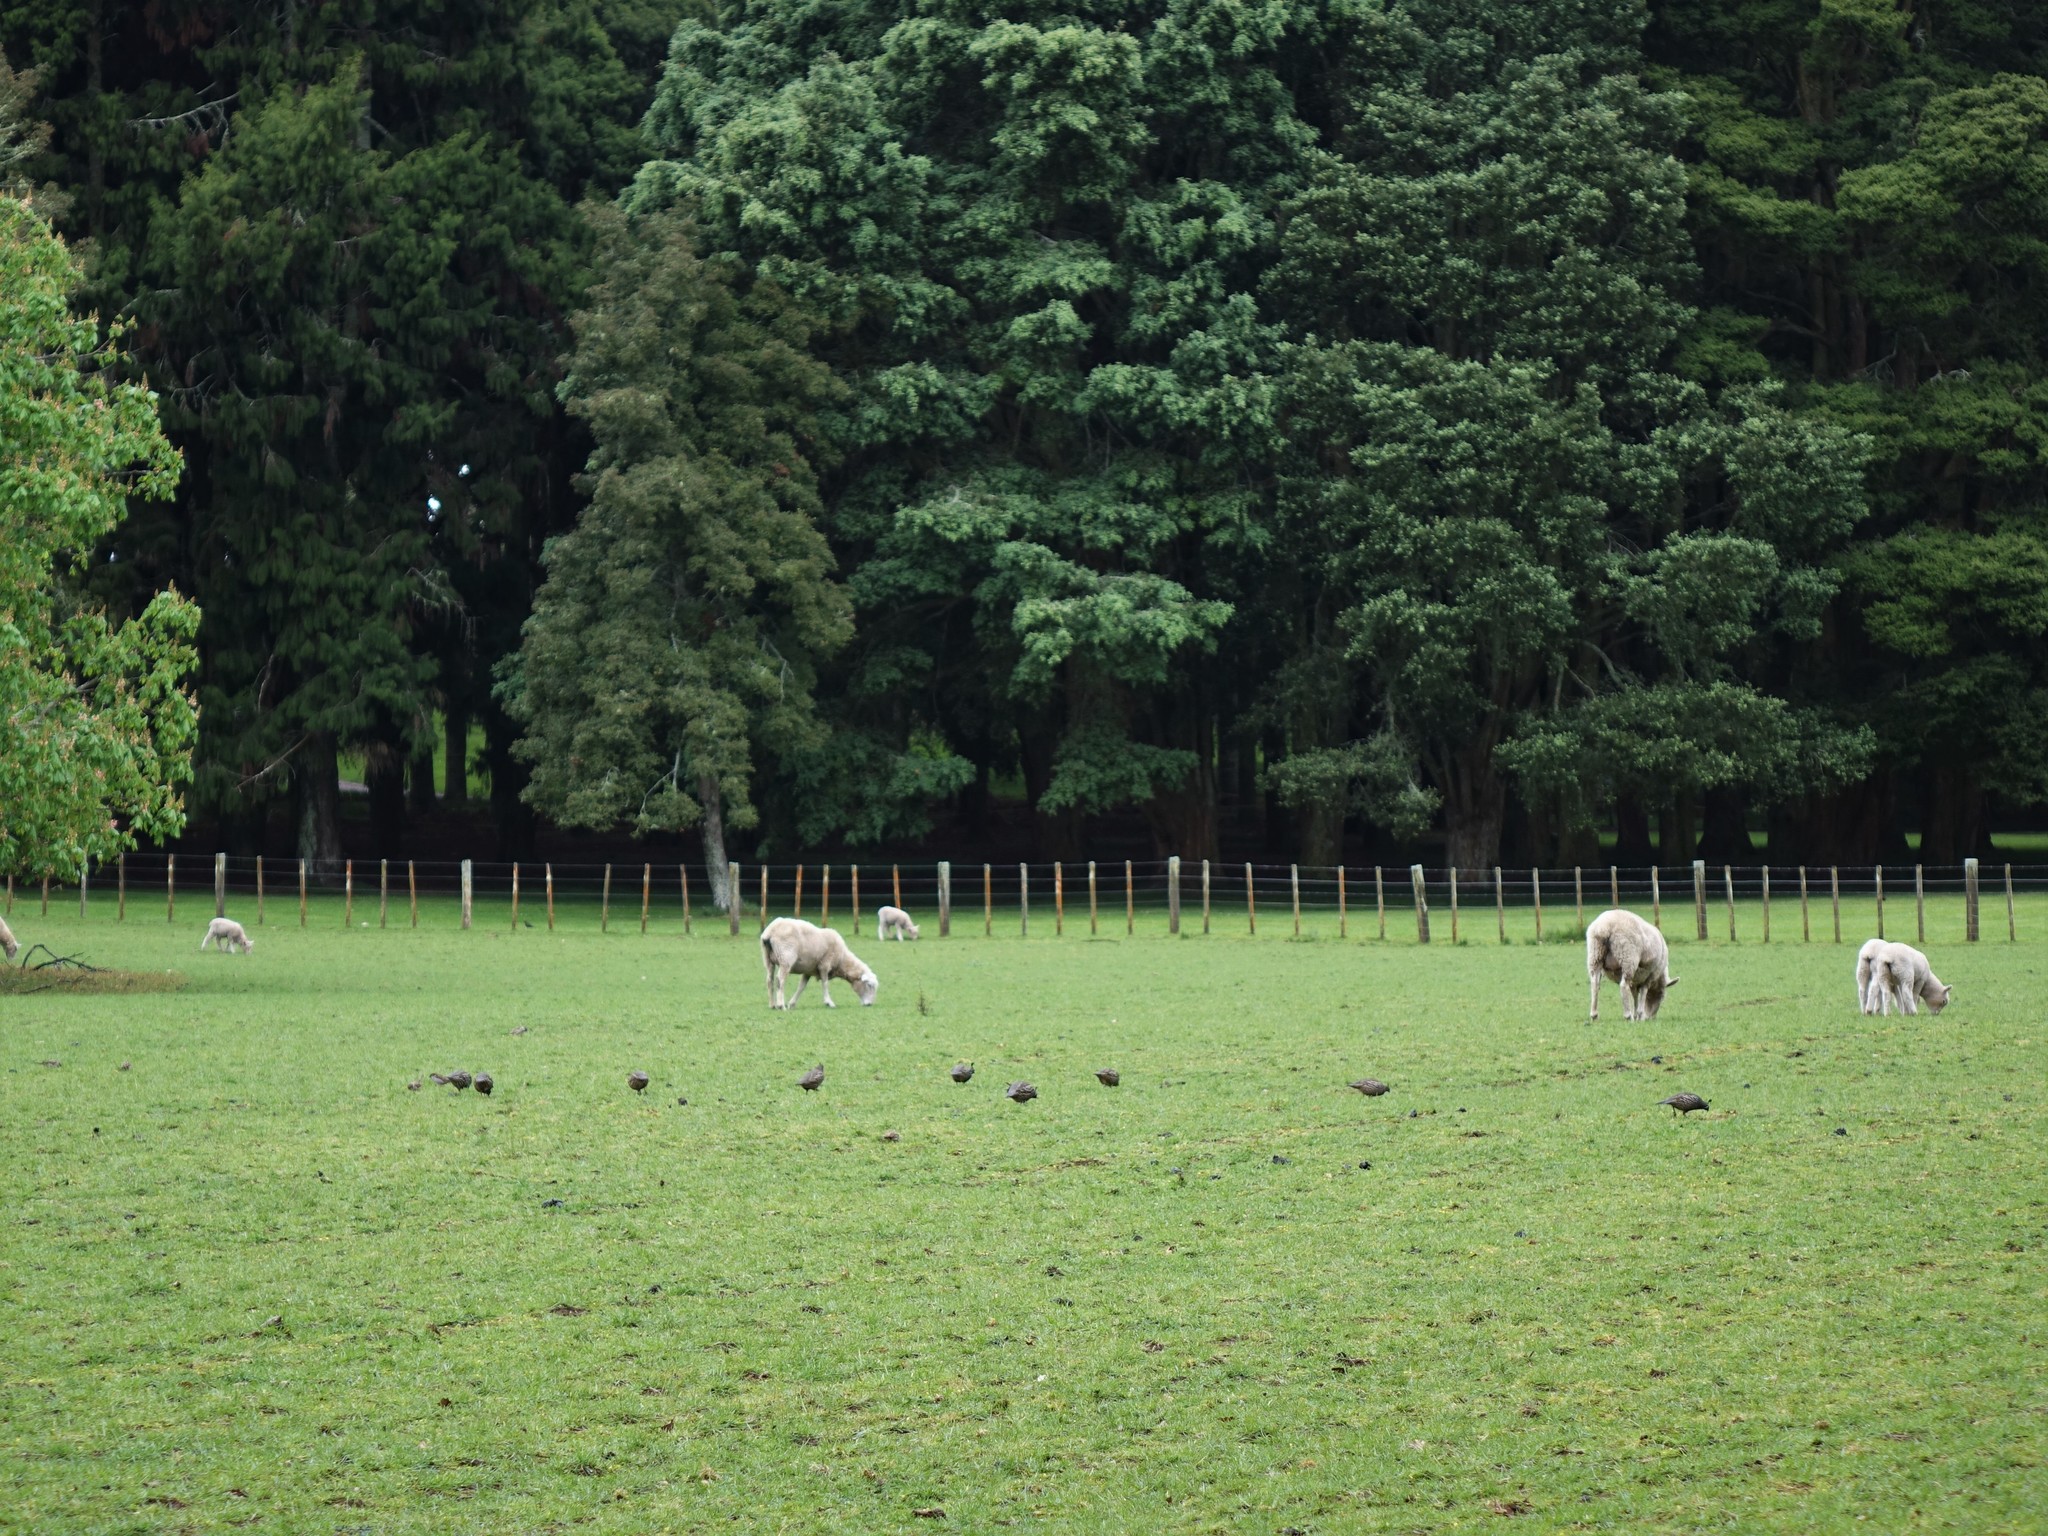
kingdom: Animalia
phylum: Chordata
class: Aves
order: Galliformes
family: Odontophoridae
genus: Callipepla
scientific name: Callipepla californica
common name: California quail
